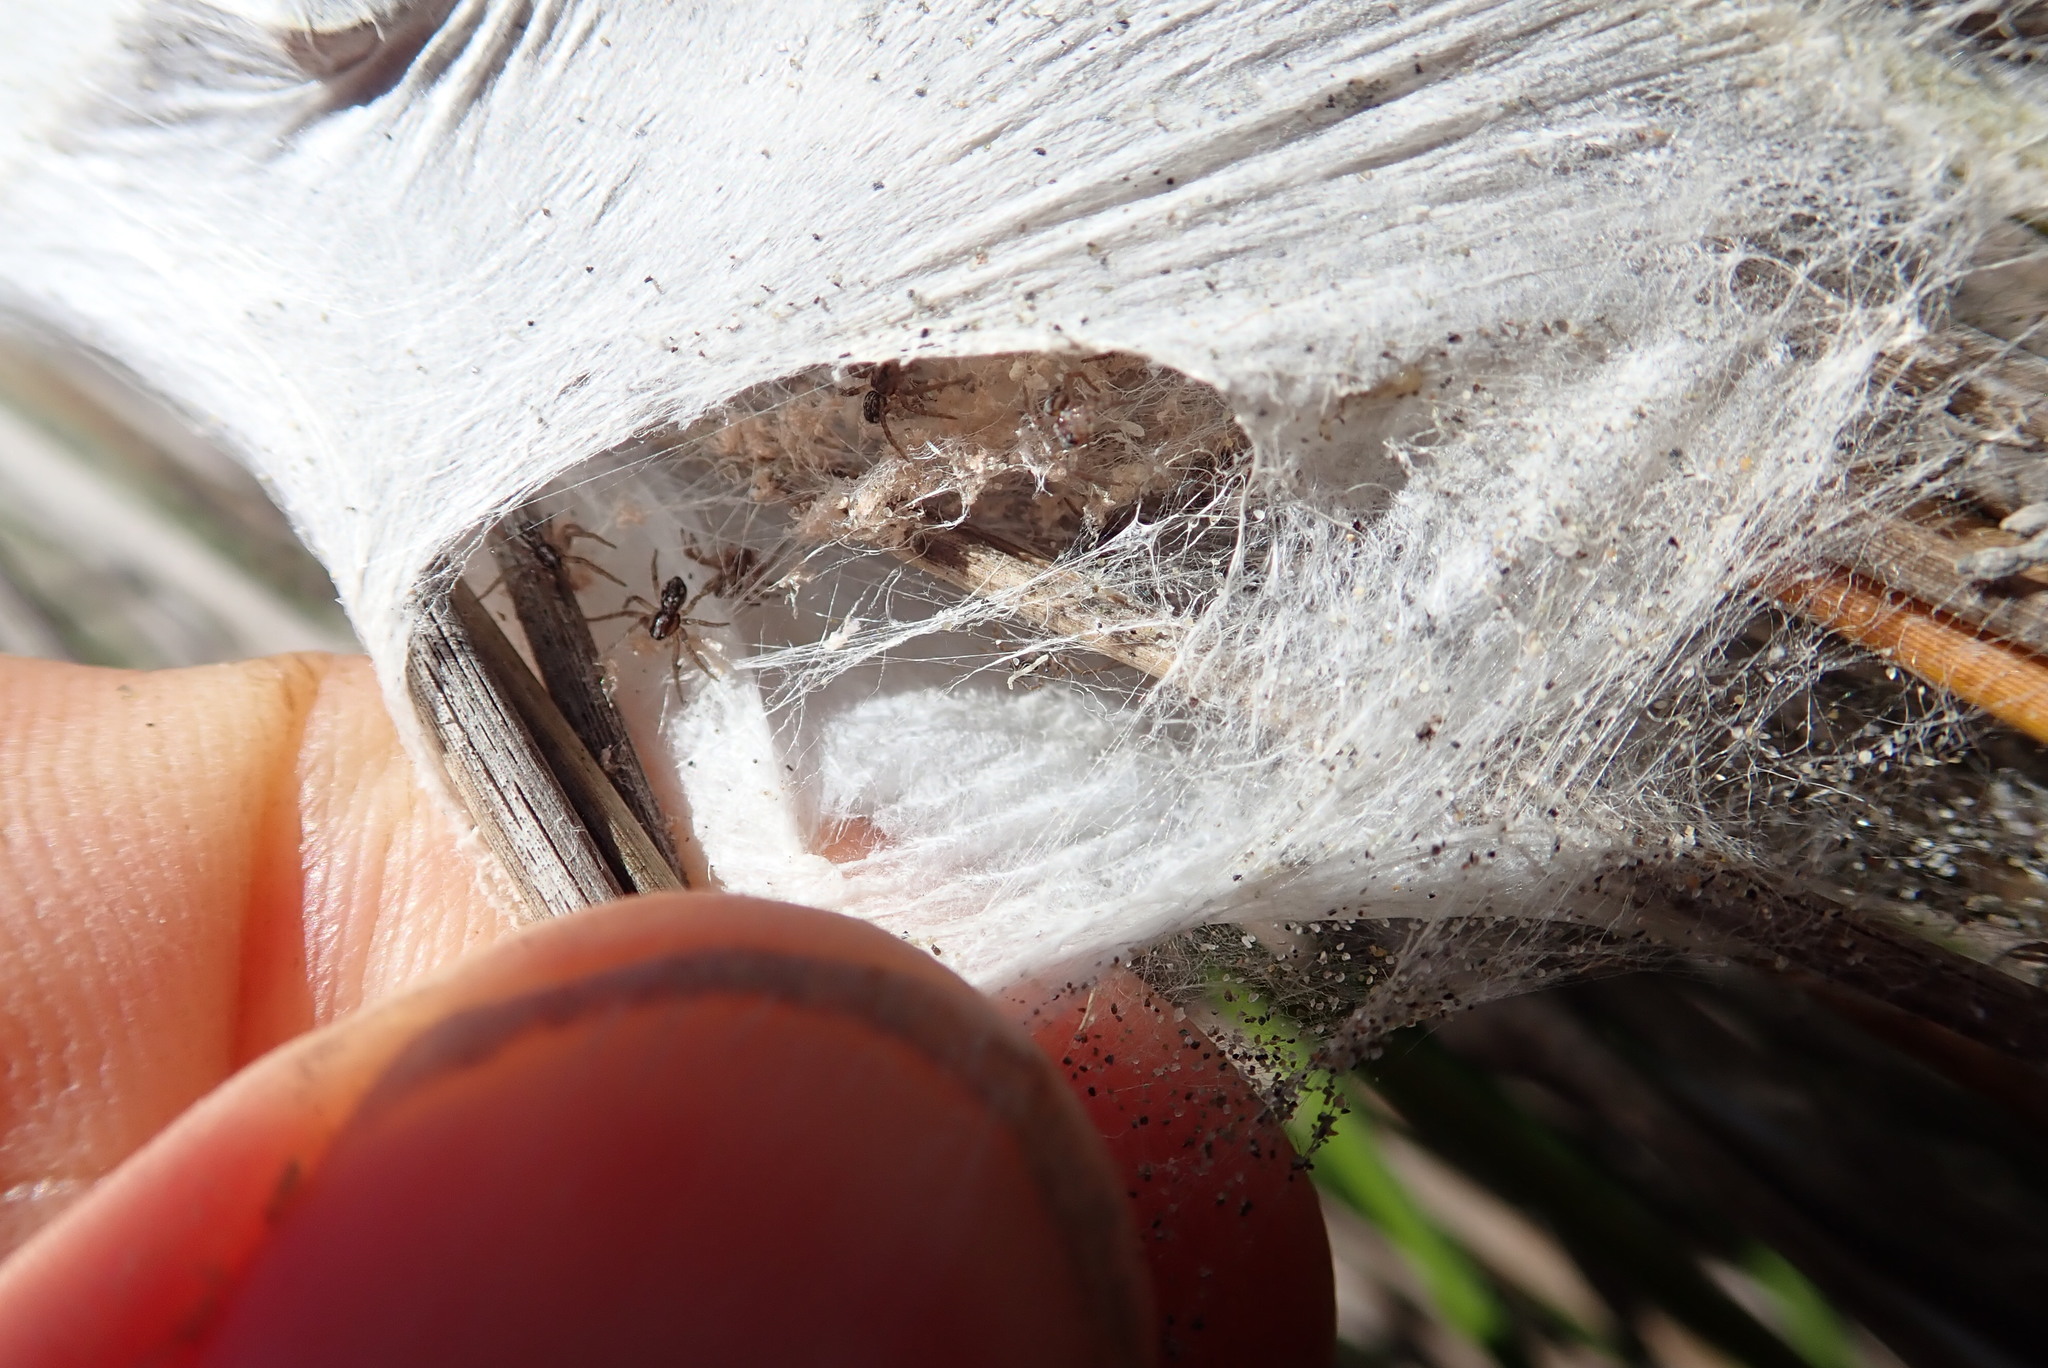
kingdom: Animalia
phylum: Arthropoda
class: Arachnida
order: Araneae
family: Pisauridae
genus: Dolomedes
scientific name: Dolomedes minor
